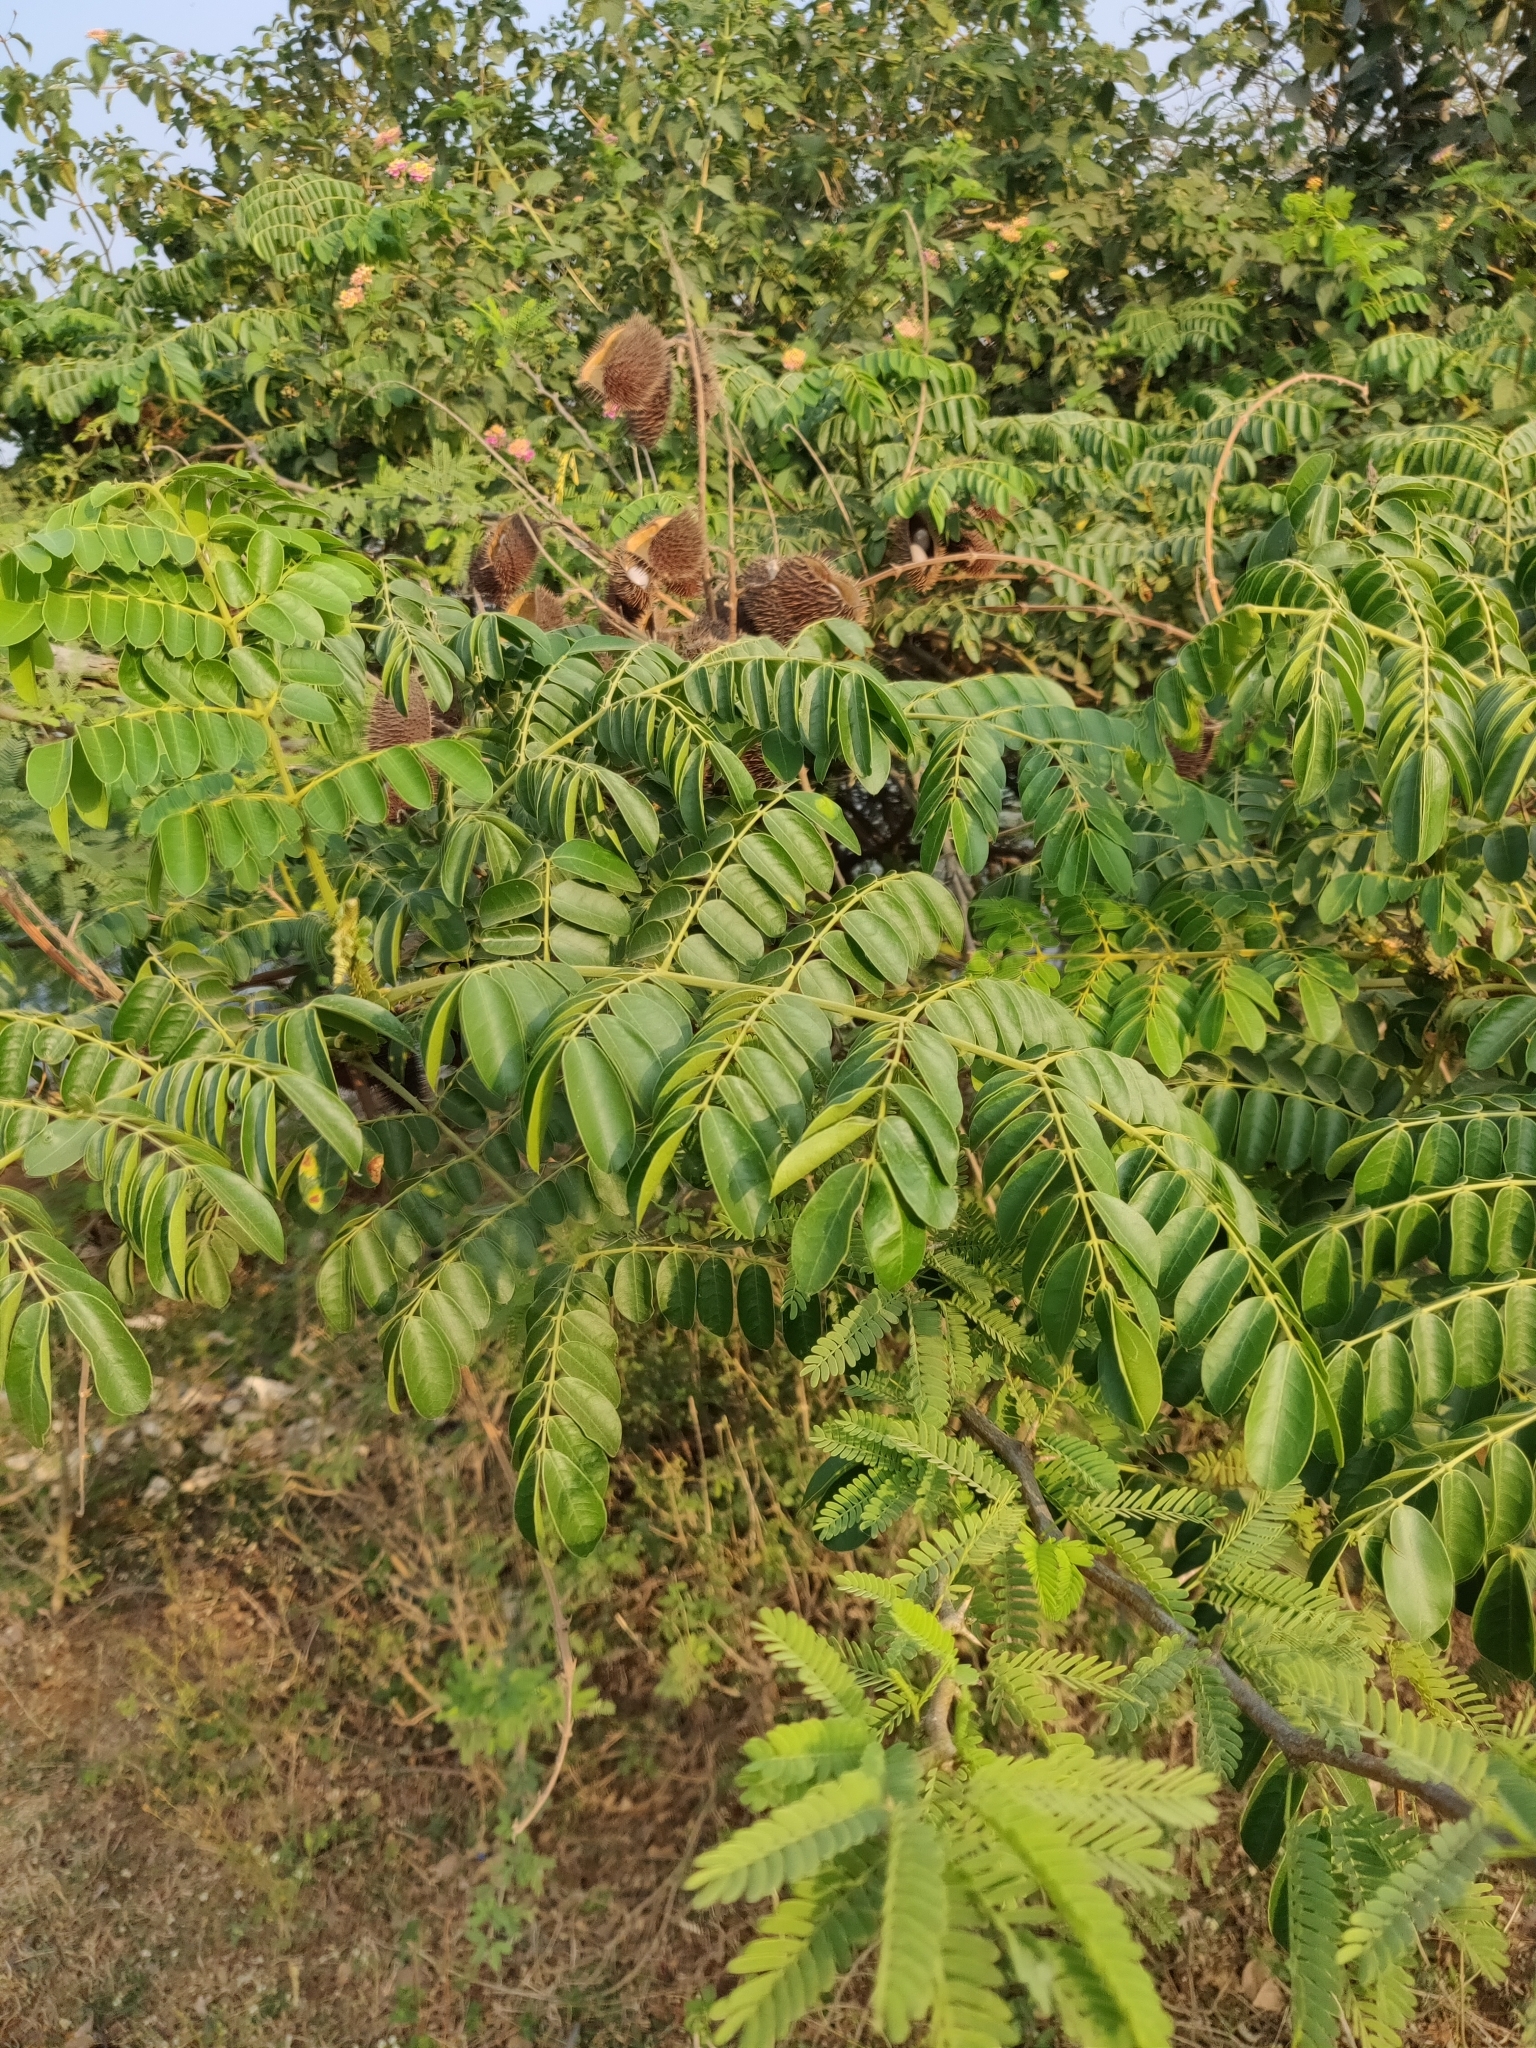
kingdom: Plantae
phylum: Tracheophyta
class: Magnoliopsida
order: Fabales
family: Fabaceae
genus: Guilandina
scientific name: Guilandina bonduc
